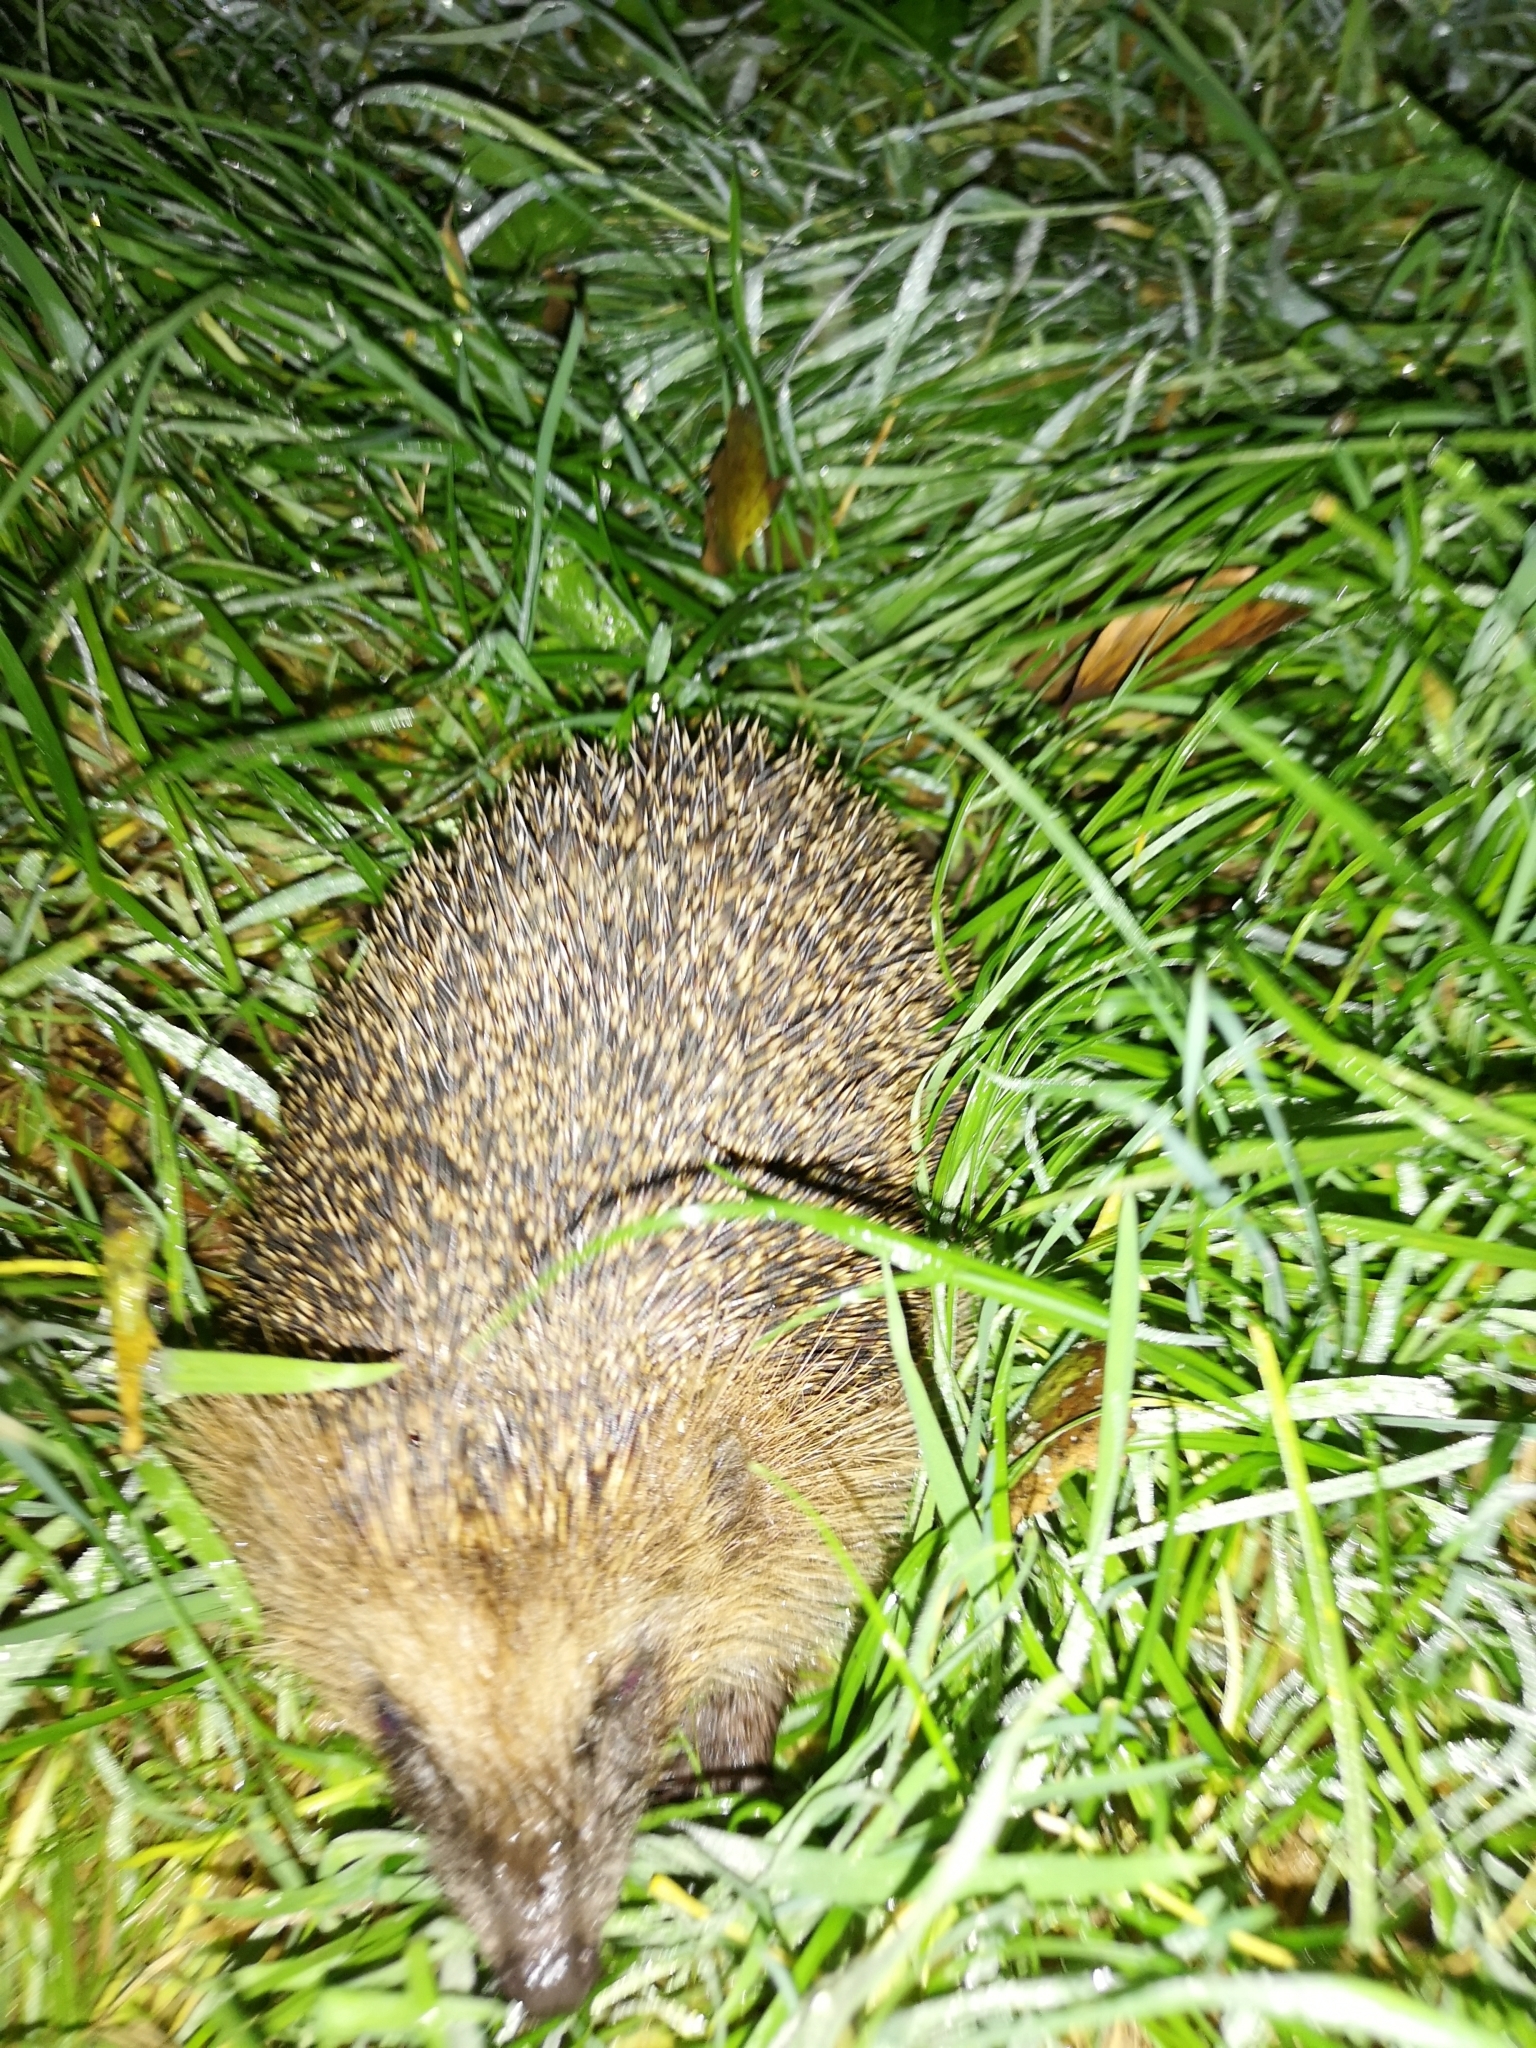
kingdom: Animalia
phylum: Chordata
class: Mammalia
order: Erinaceomorpha
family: Erinaceidae
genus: Erinaceus
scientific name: Erinaceus europaeus
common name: West european hedgehog
